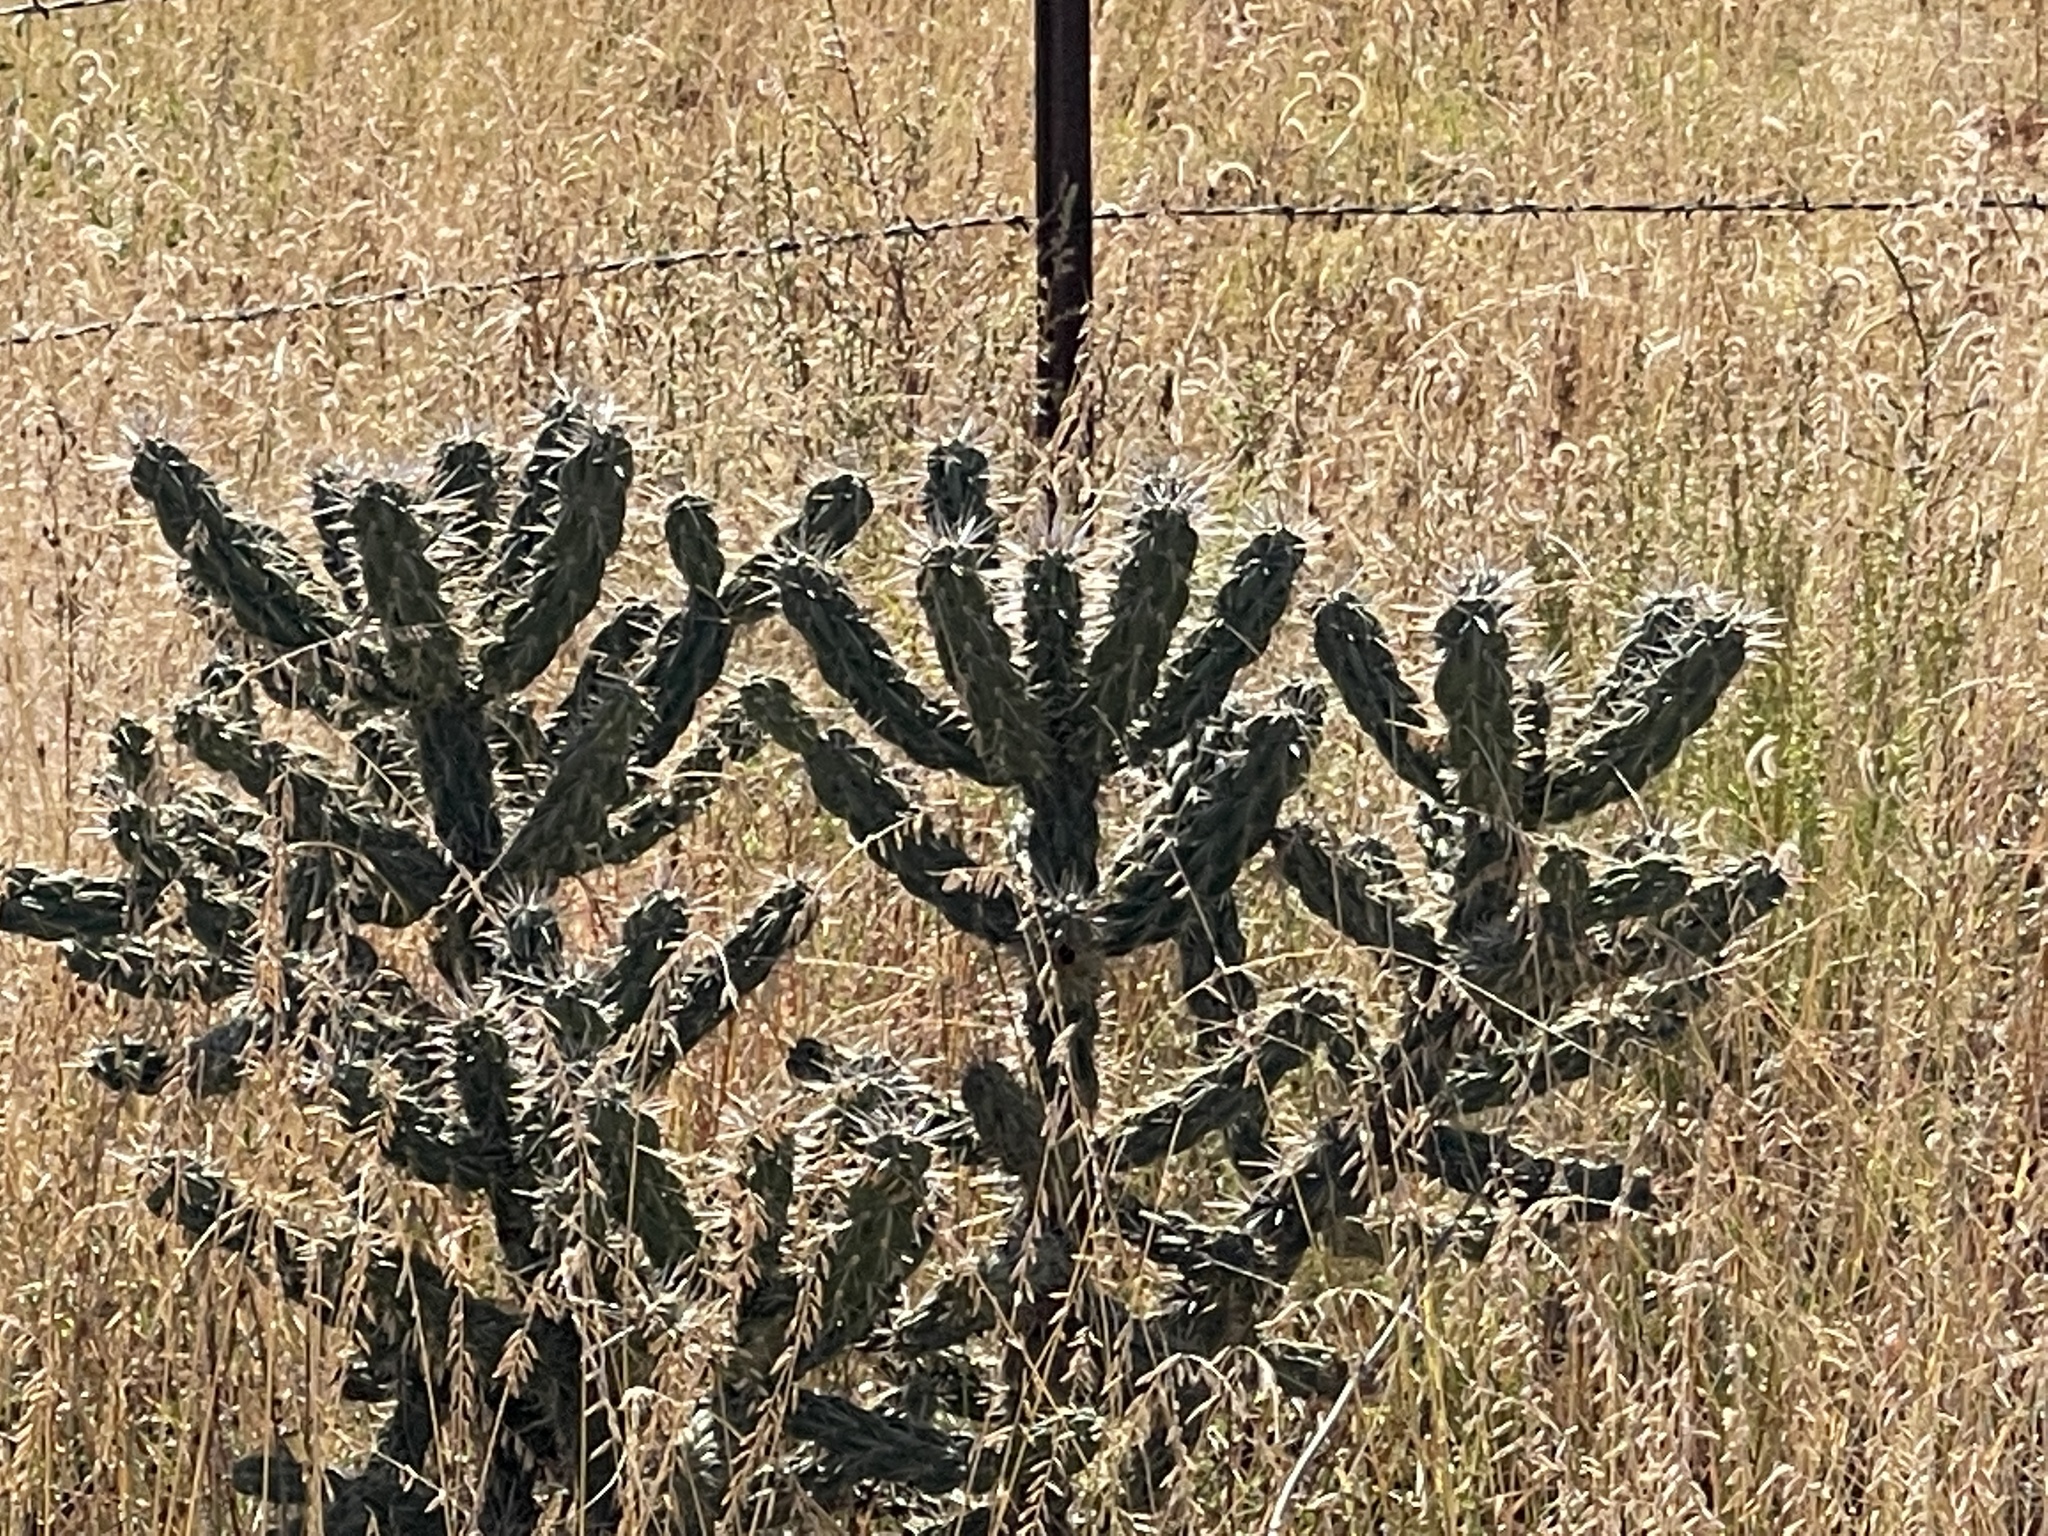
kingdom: Plantae
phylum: Tracheophyta
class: Magnoliopsida
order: Caryophyllales
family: Cactaceae
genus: Cylindropuntia
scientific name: Cylindropuntia imbricata
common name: Candelabrum cactus
